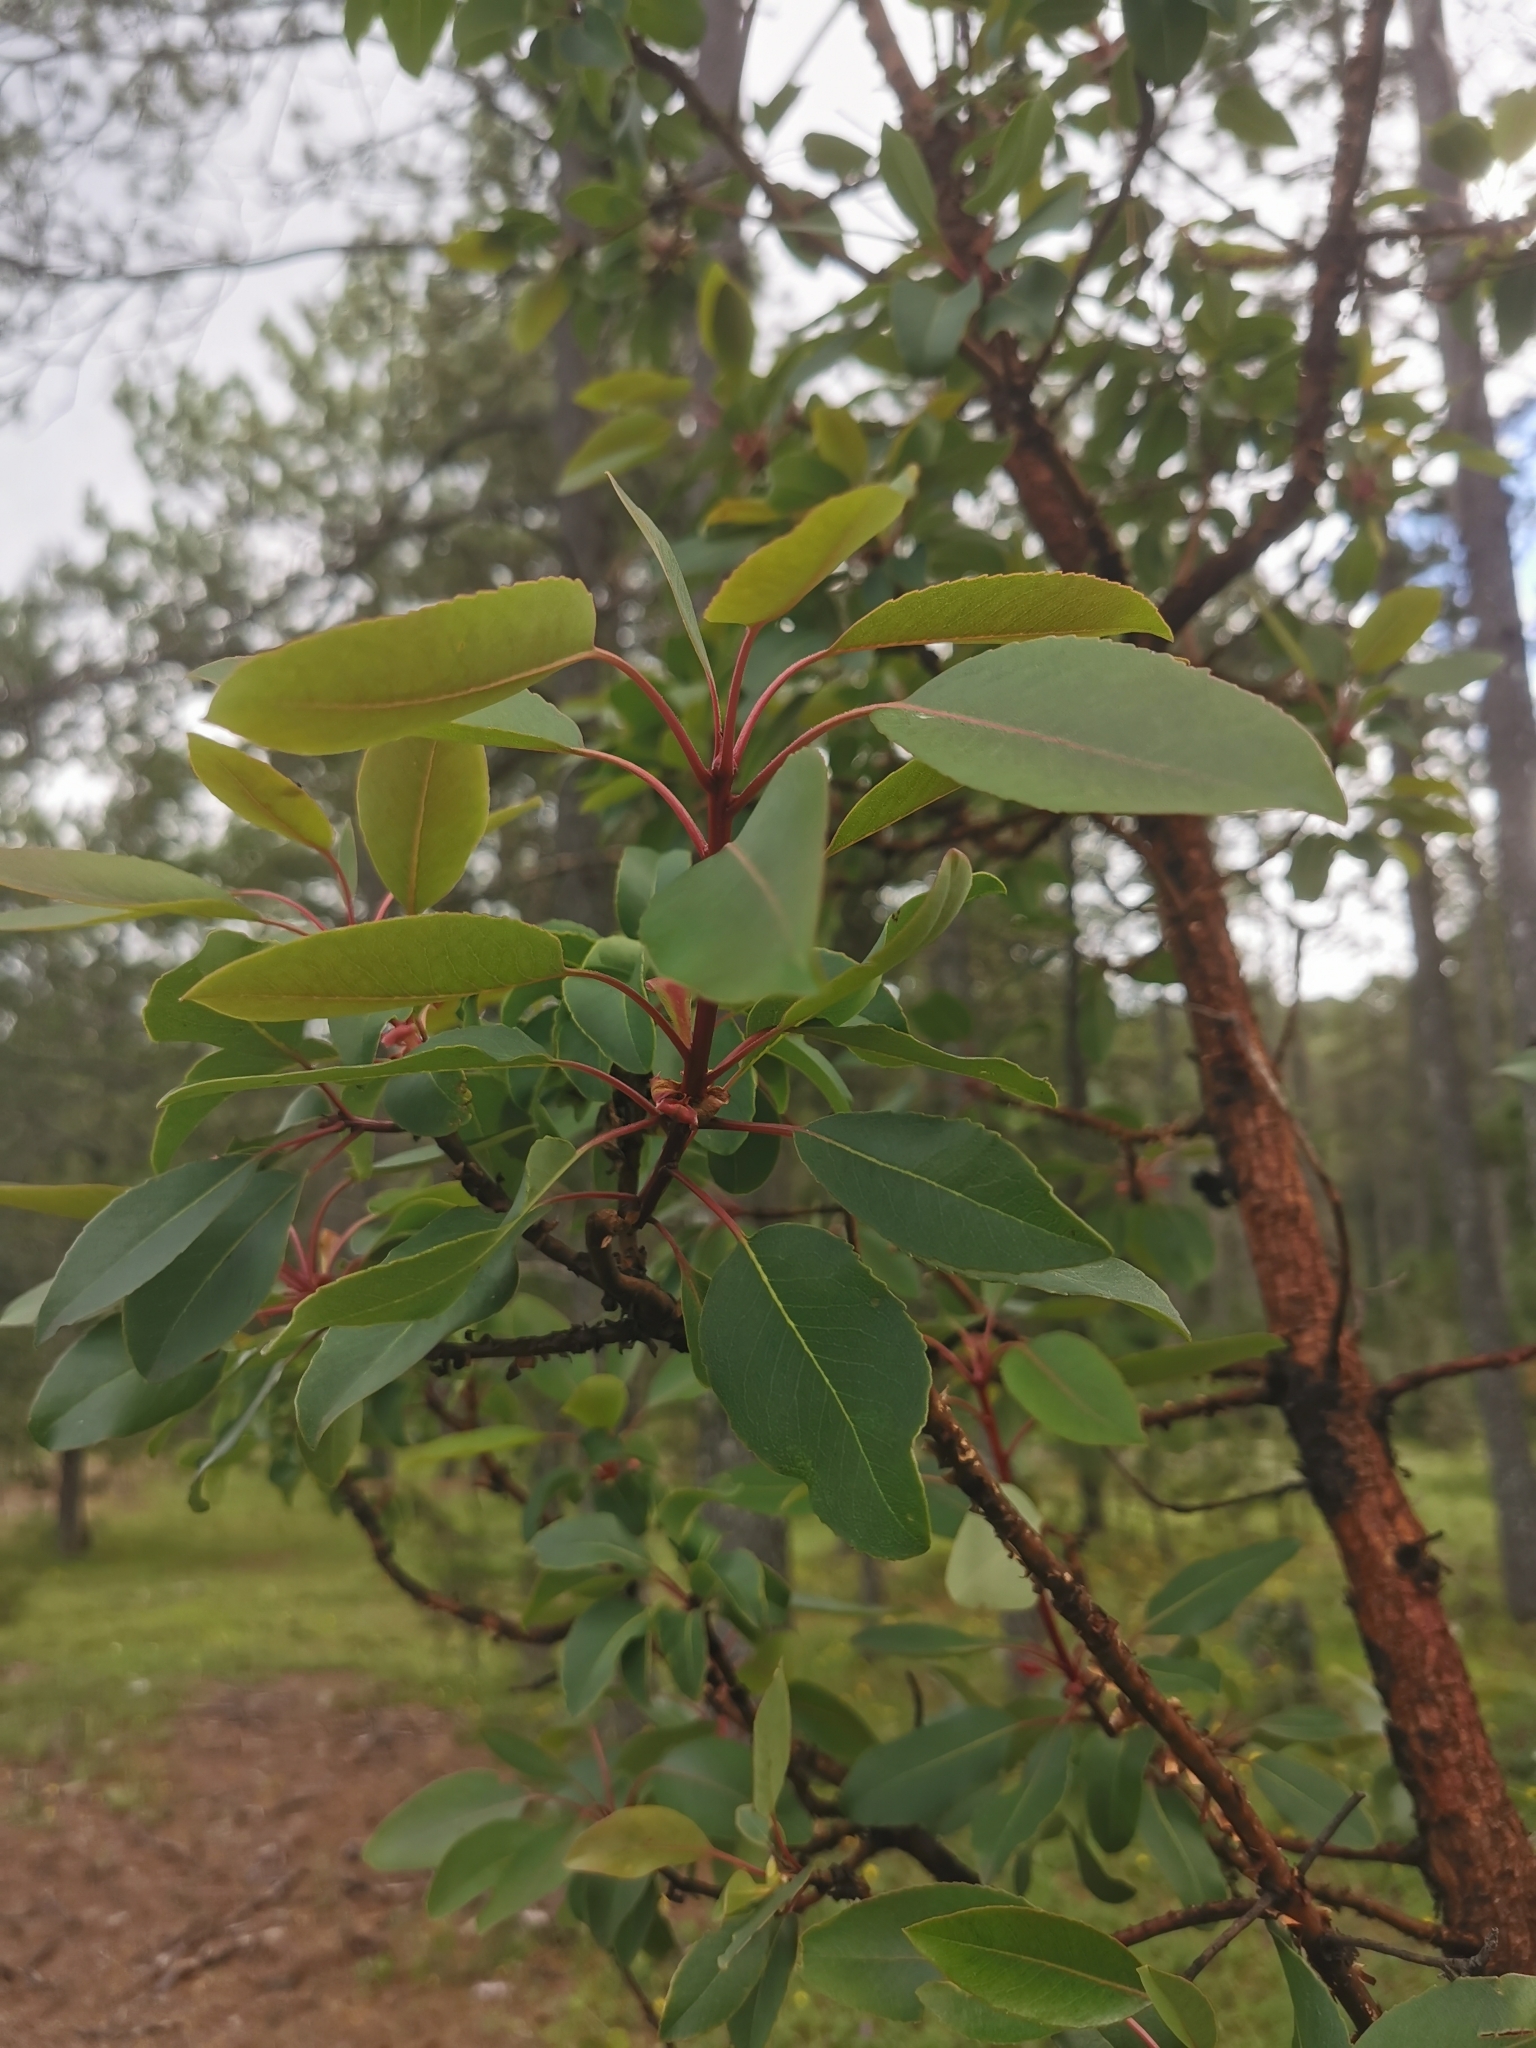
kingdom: Plantae
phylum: Tracheophyta
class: Magnoliopsida
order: Ericales
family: Ericaceae
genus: Arbutus
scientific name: Arbutus arizonica
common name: Arizona madrone
